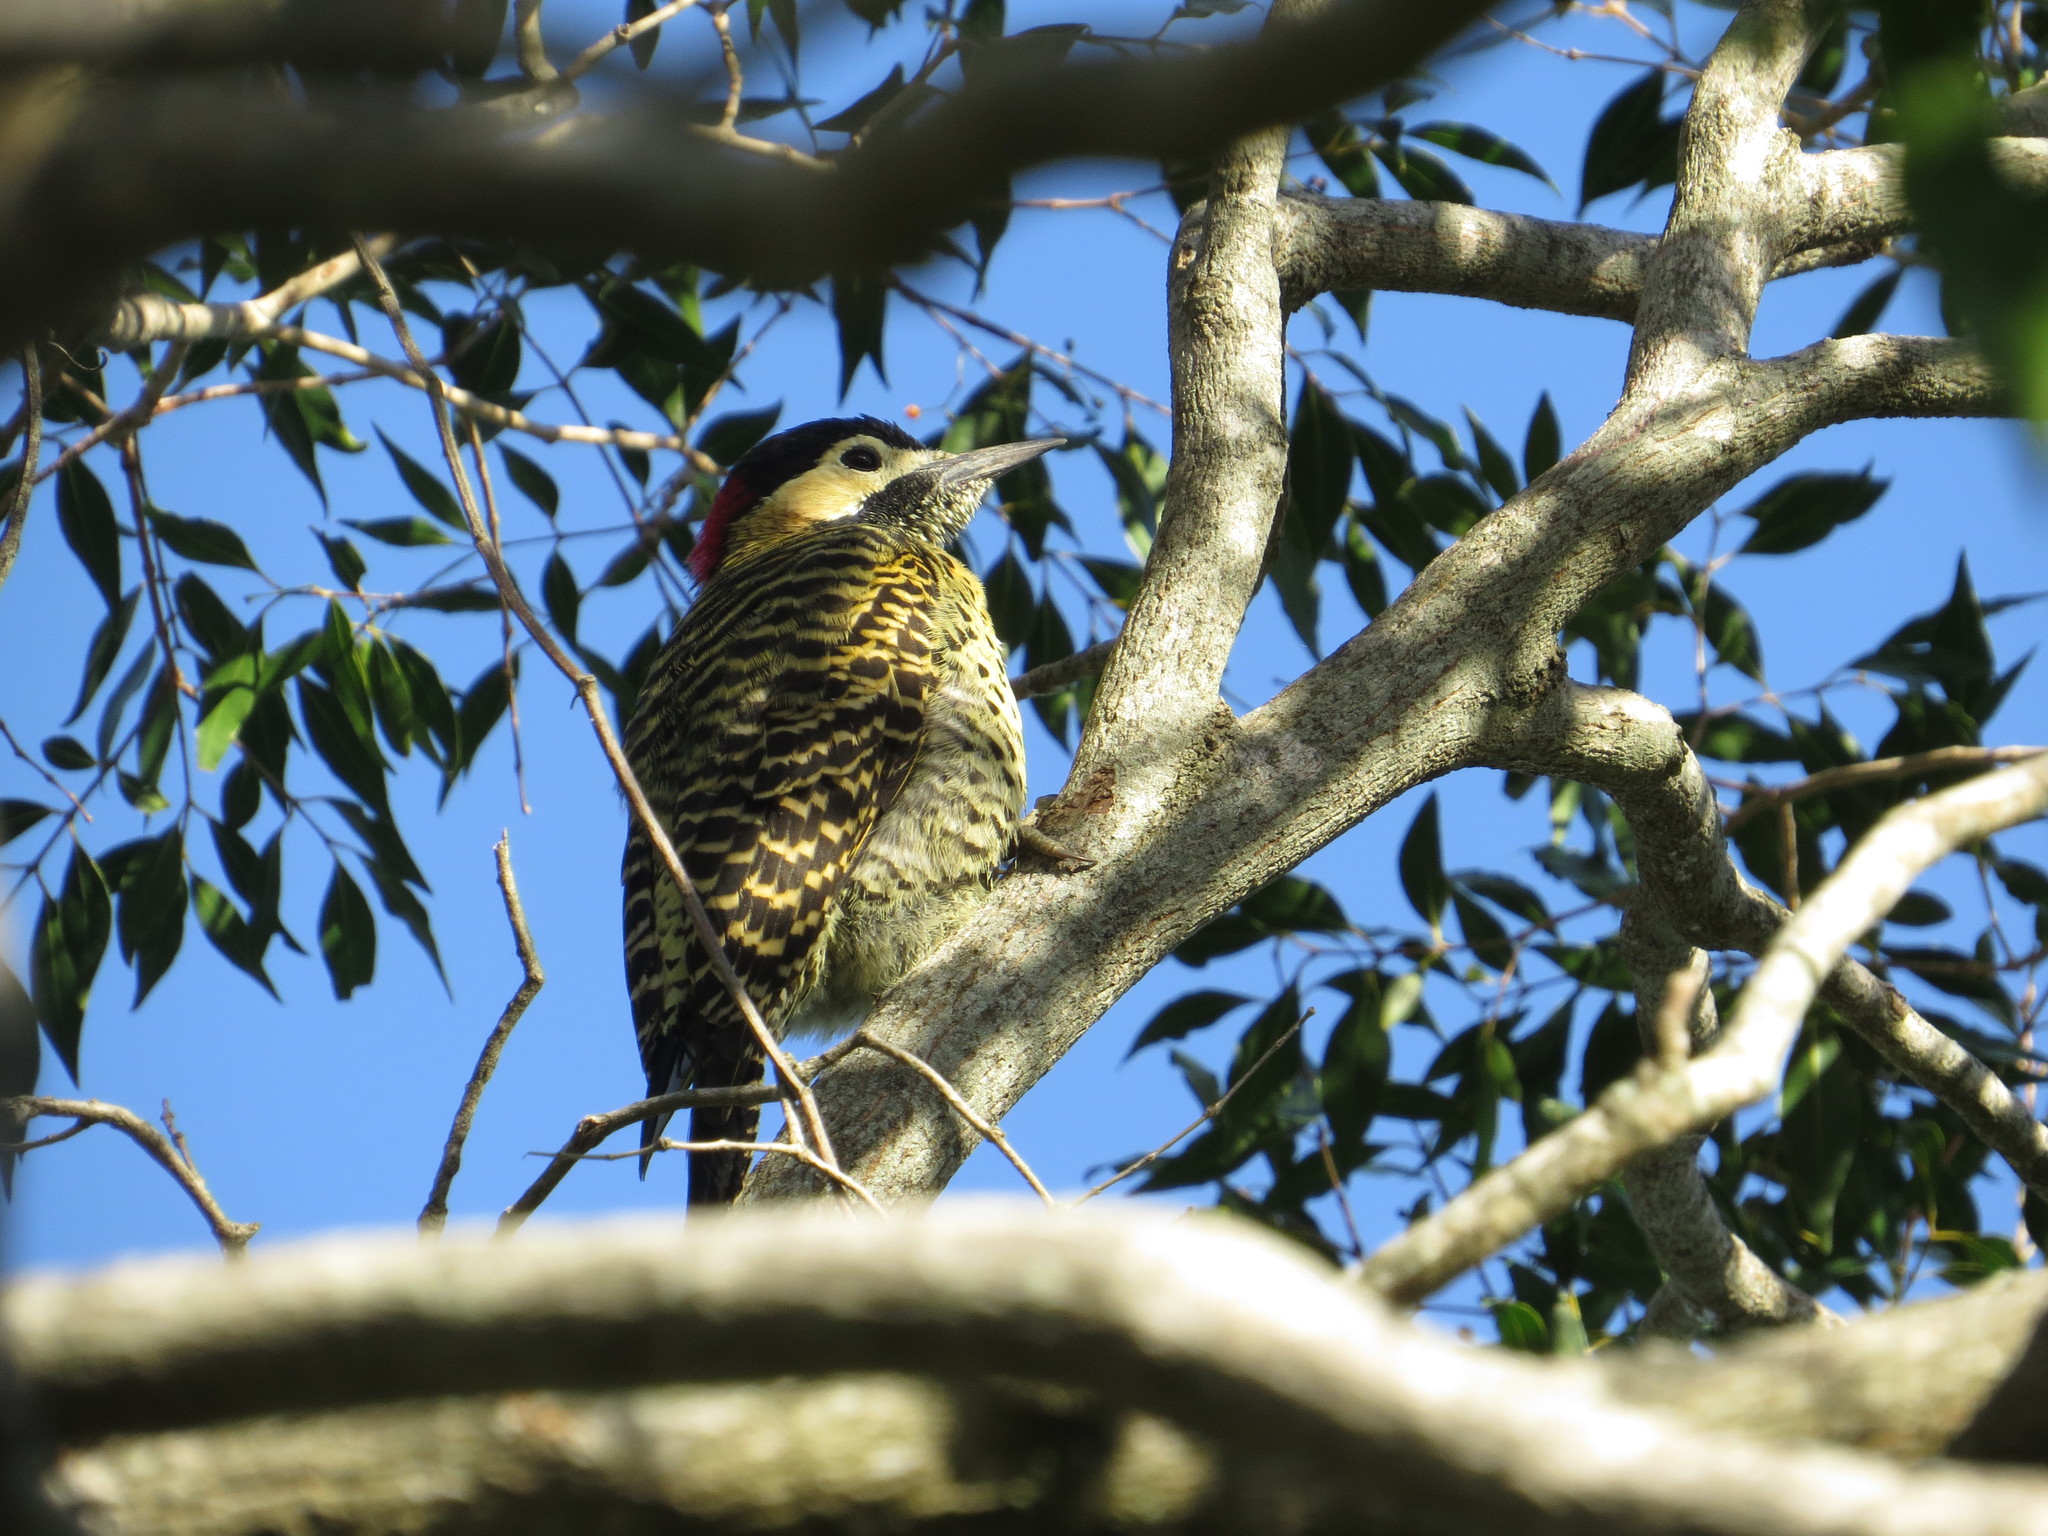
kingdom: Animalia
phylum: Chordata
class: Aves
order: Piciformes
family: Picidae
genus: Colaptes
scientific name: Colaptes melanochloros
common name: Green-barred woodpecker
